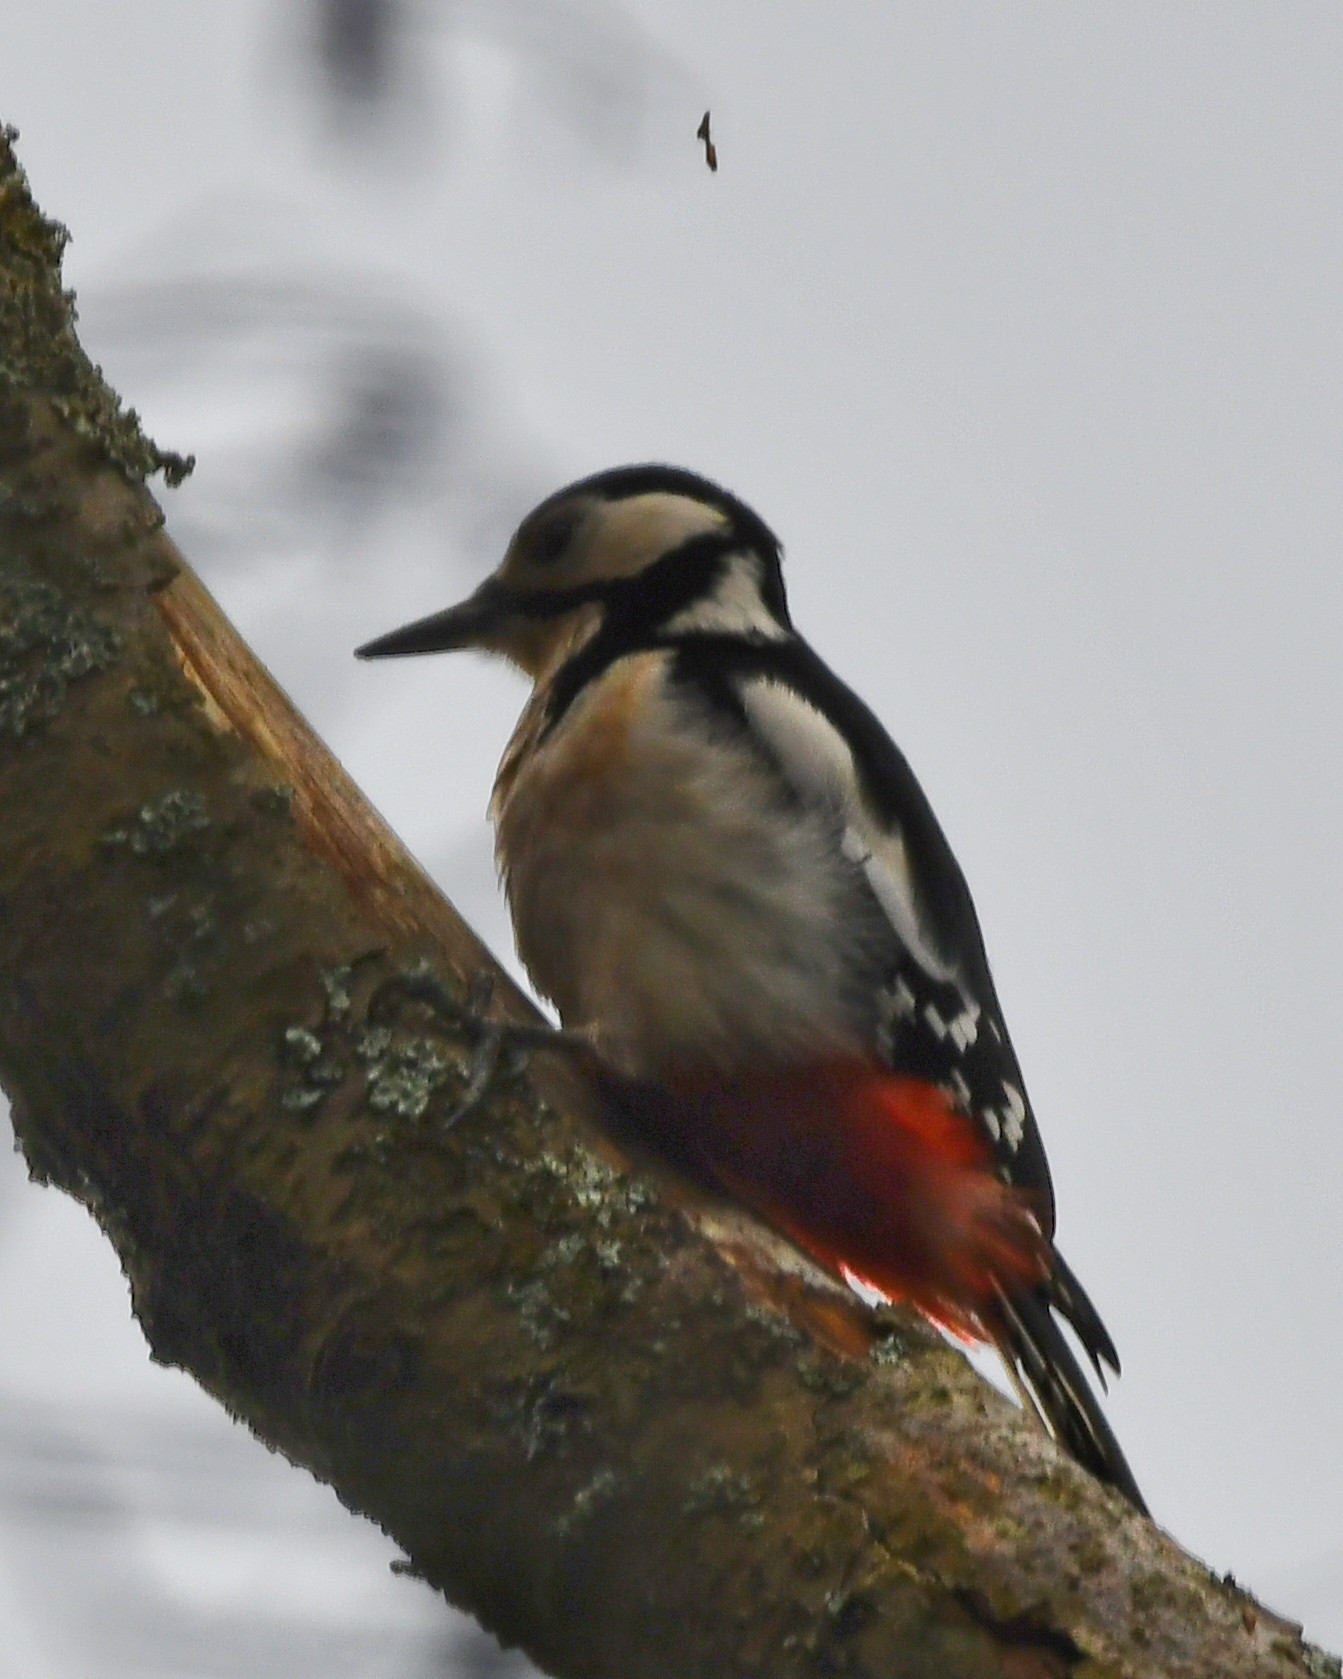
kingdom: Animalia
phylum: Chordata
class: Aves
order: Piciformes
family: Picidae
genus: Dendrocopos
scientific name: Dendrocopos major
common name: Great spotted woodpecker
